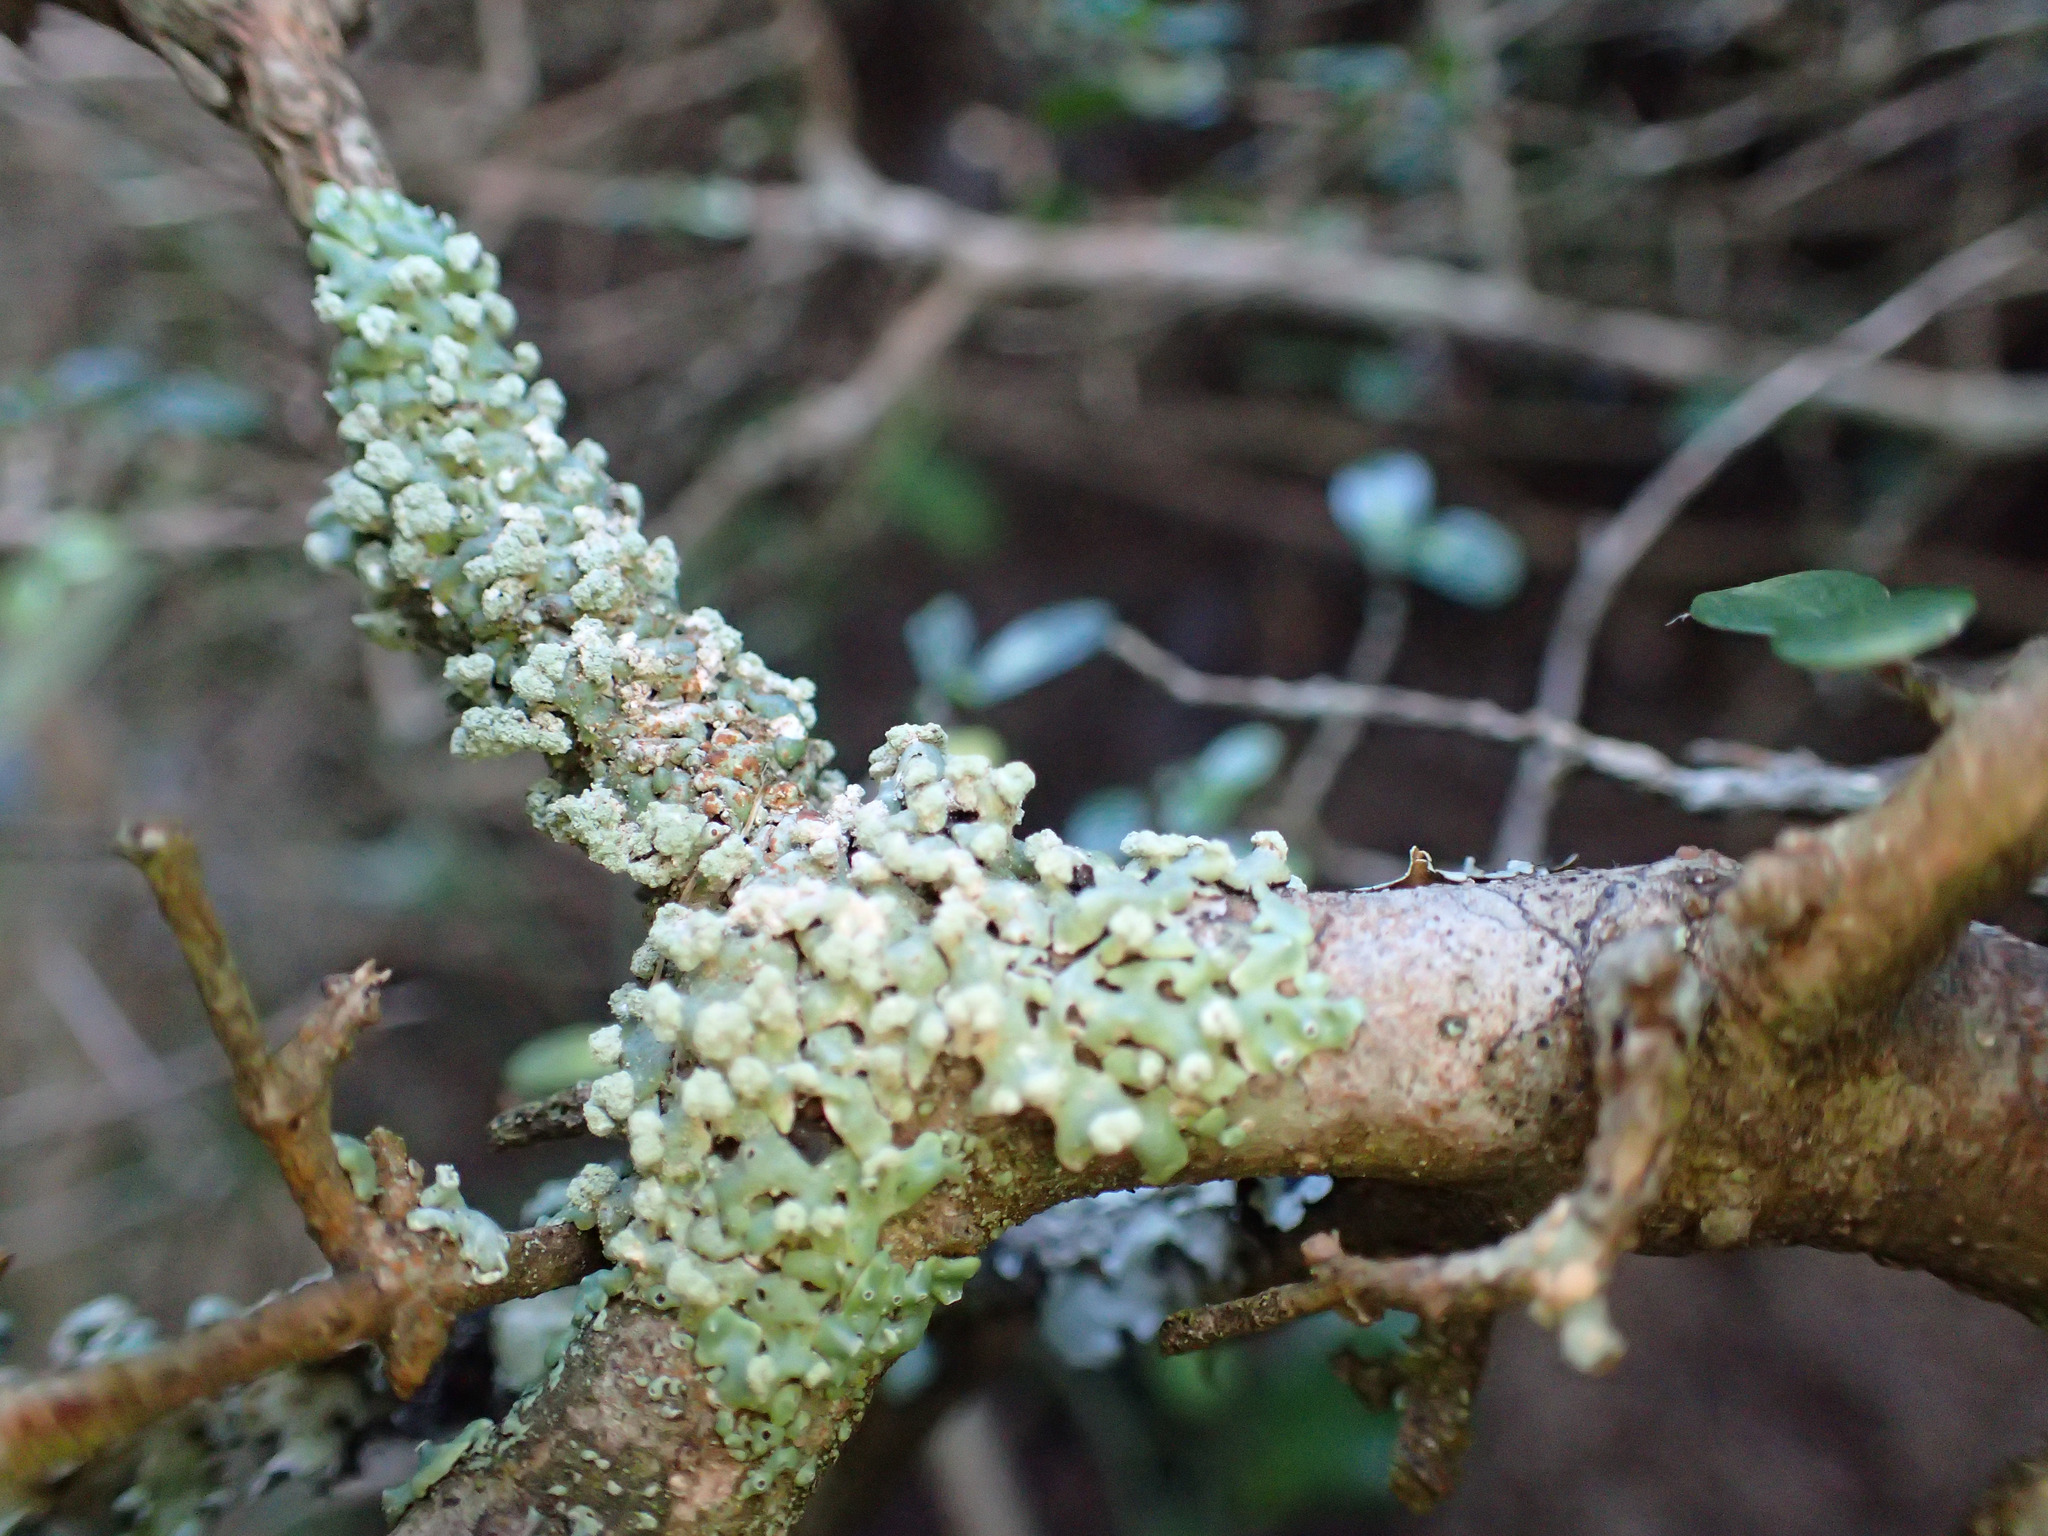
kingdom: Fungi
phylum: Ascomycota
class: Lecanoromycetes
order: Lecanorales
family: Parmeliaceae
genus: Menegazzia
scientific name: Menegazzia neozelandica
